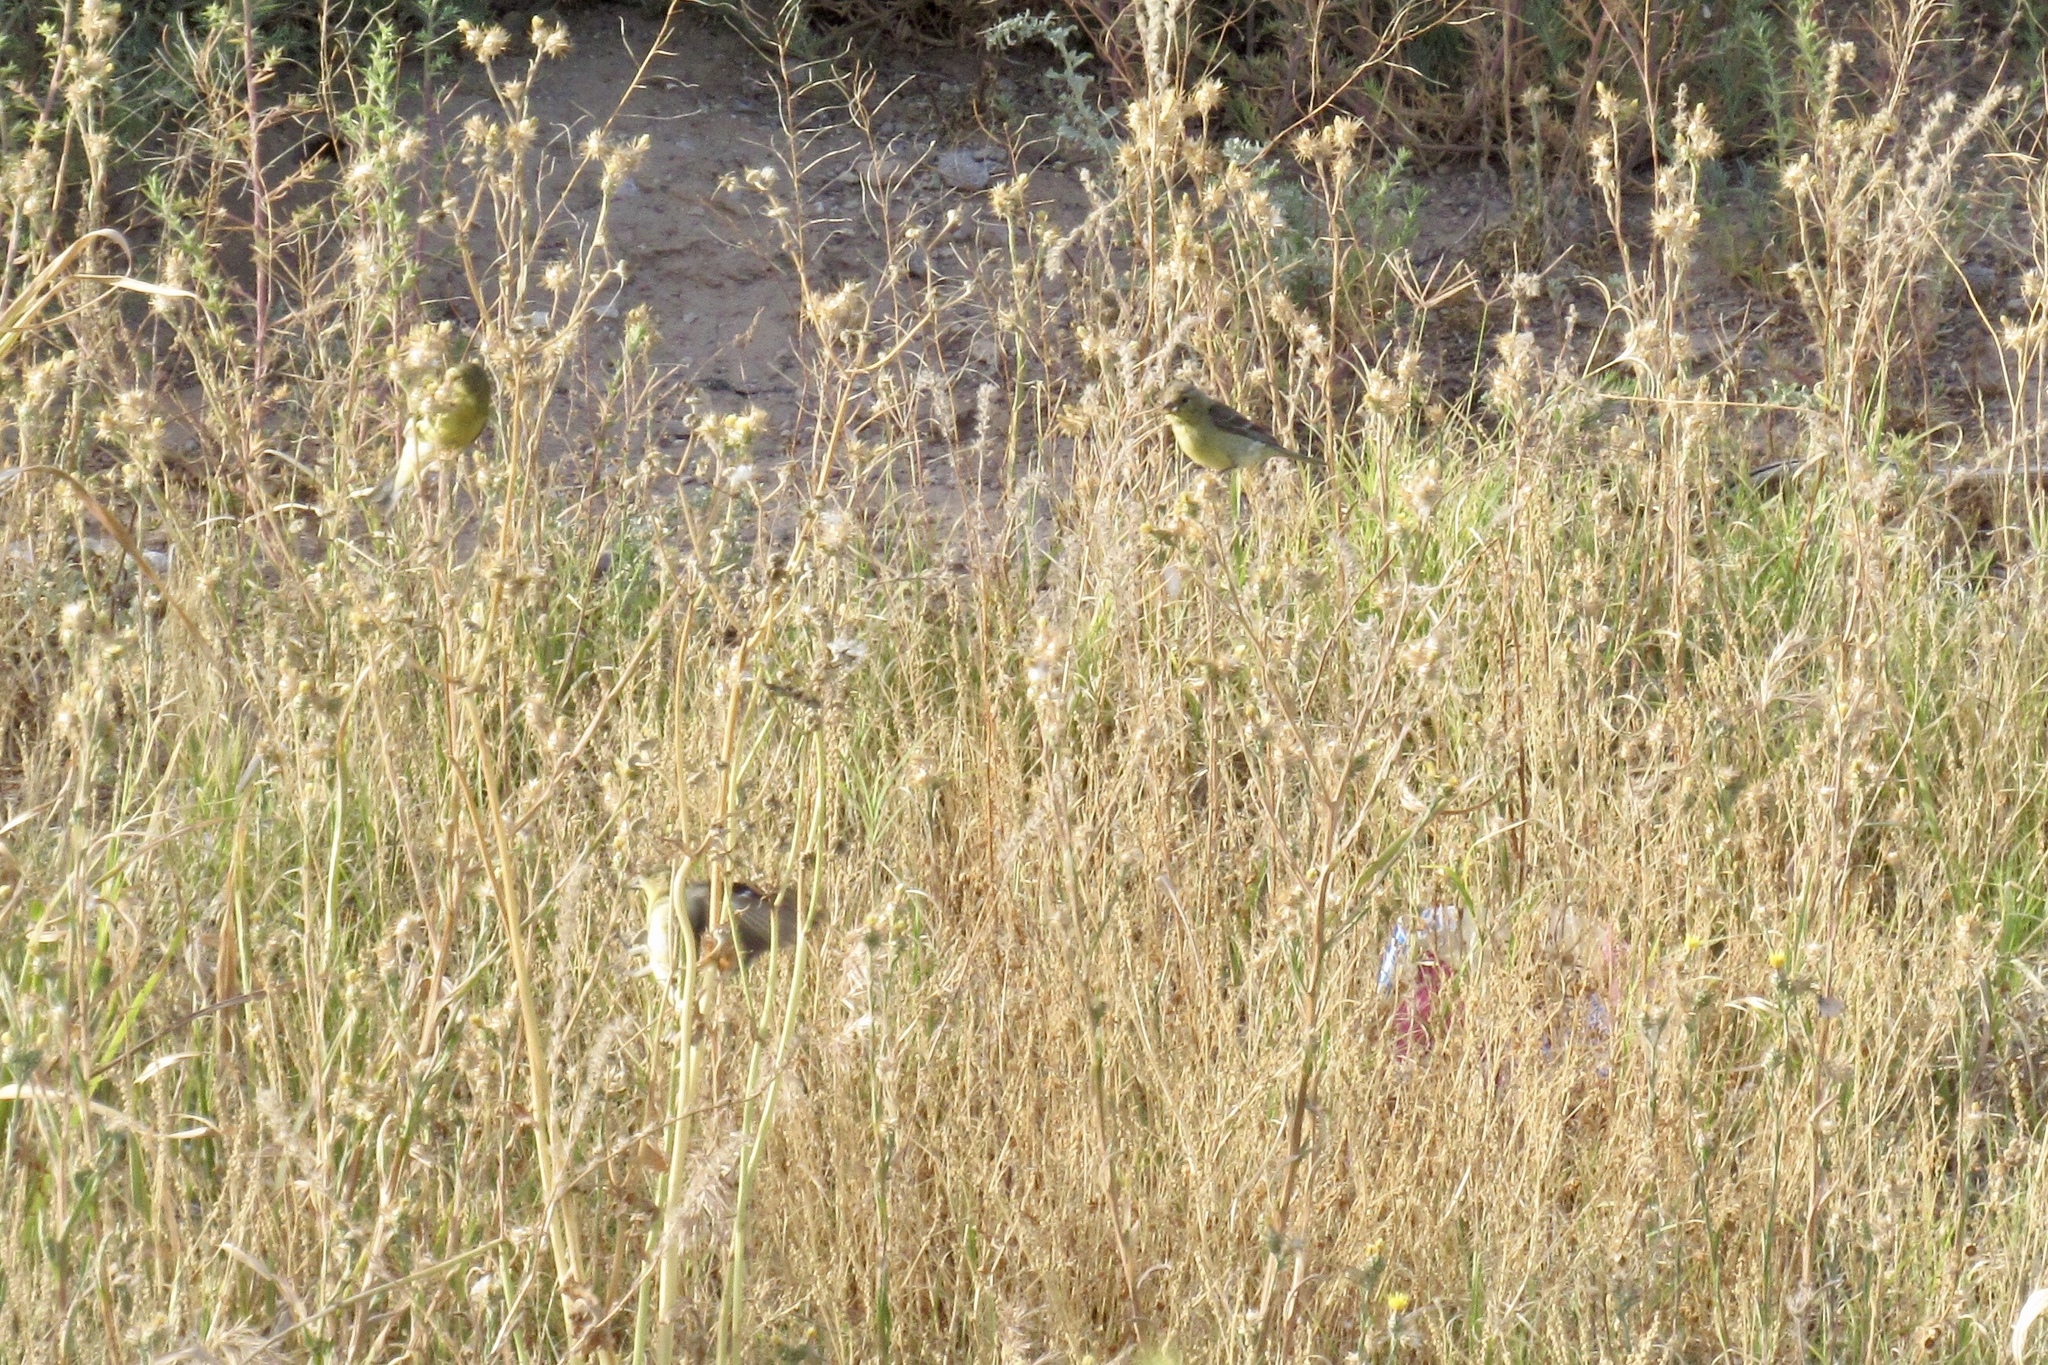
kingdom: Animalia
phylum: Chordata
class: Aves
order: Passeriformes
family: Fringillidae
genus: Spinus
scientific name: Spinus psaltria
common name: Lesser goldfinch
